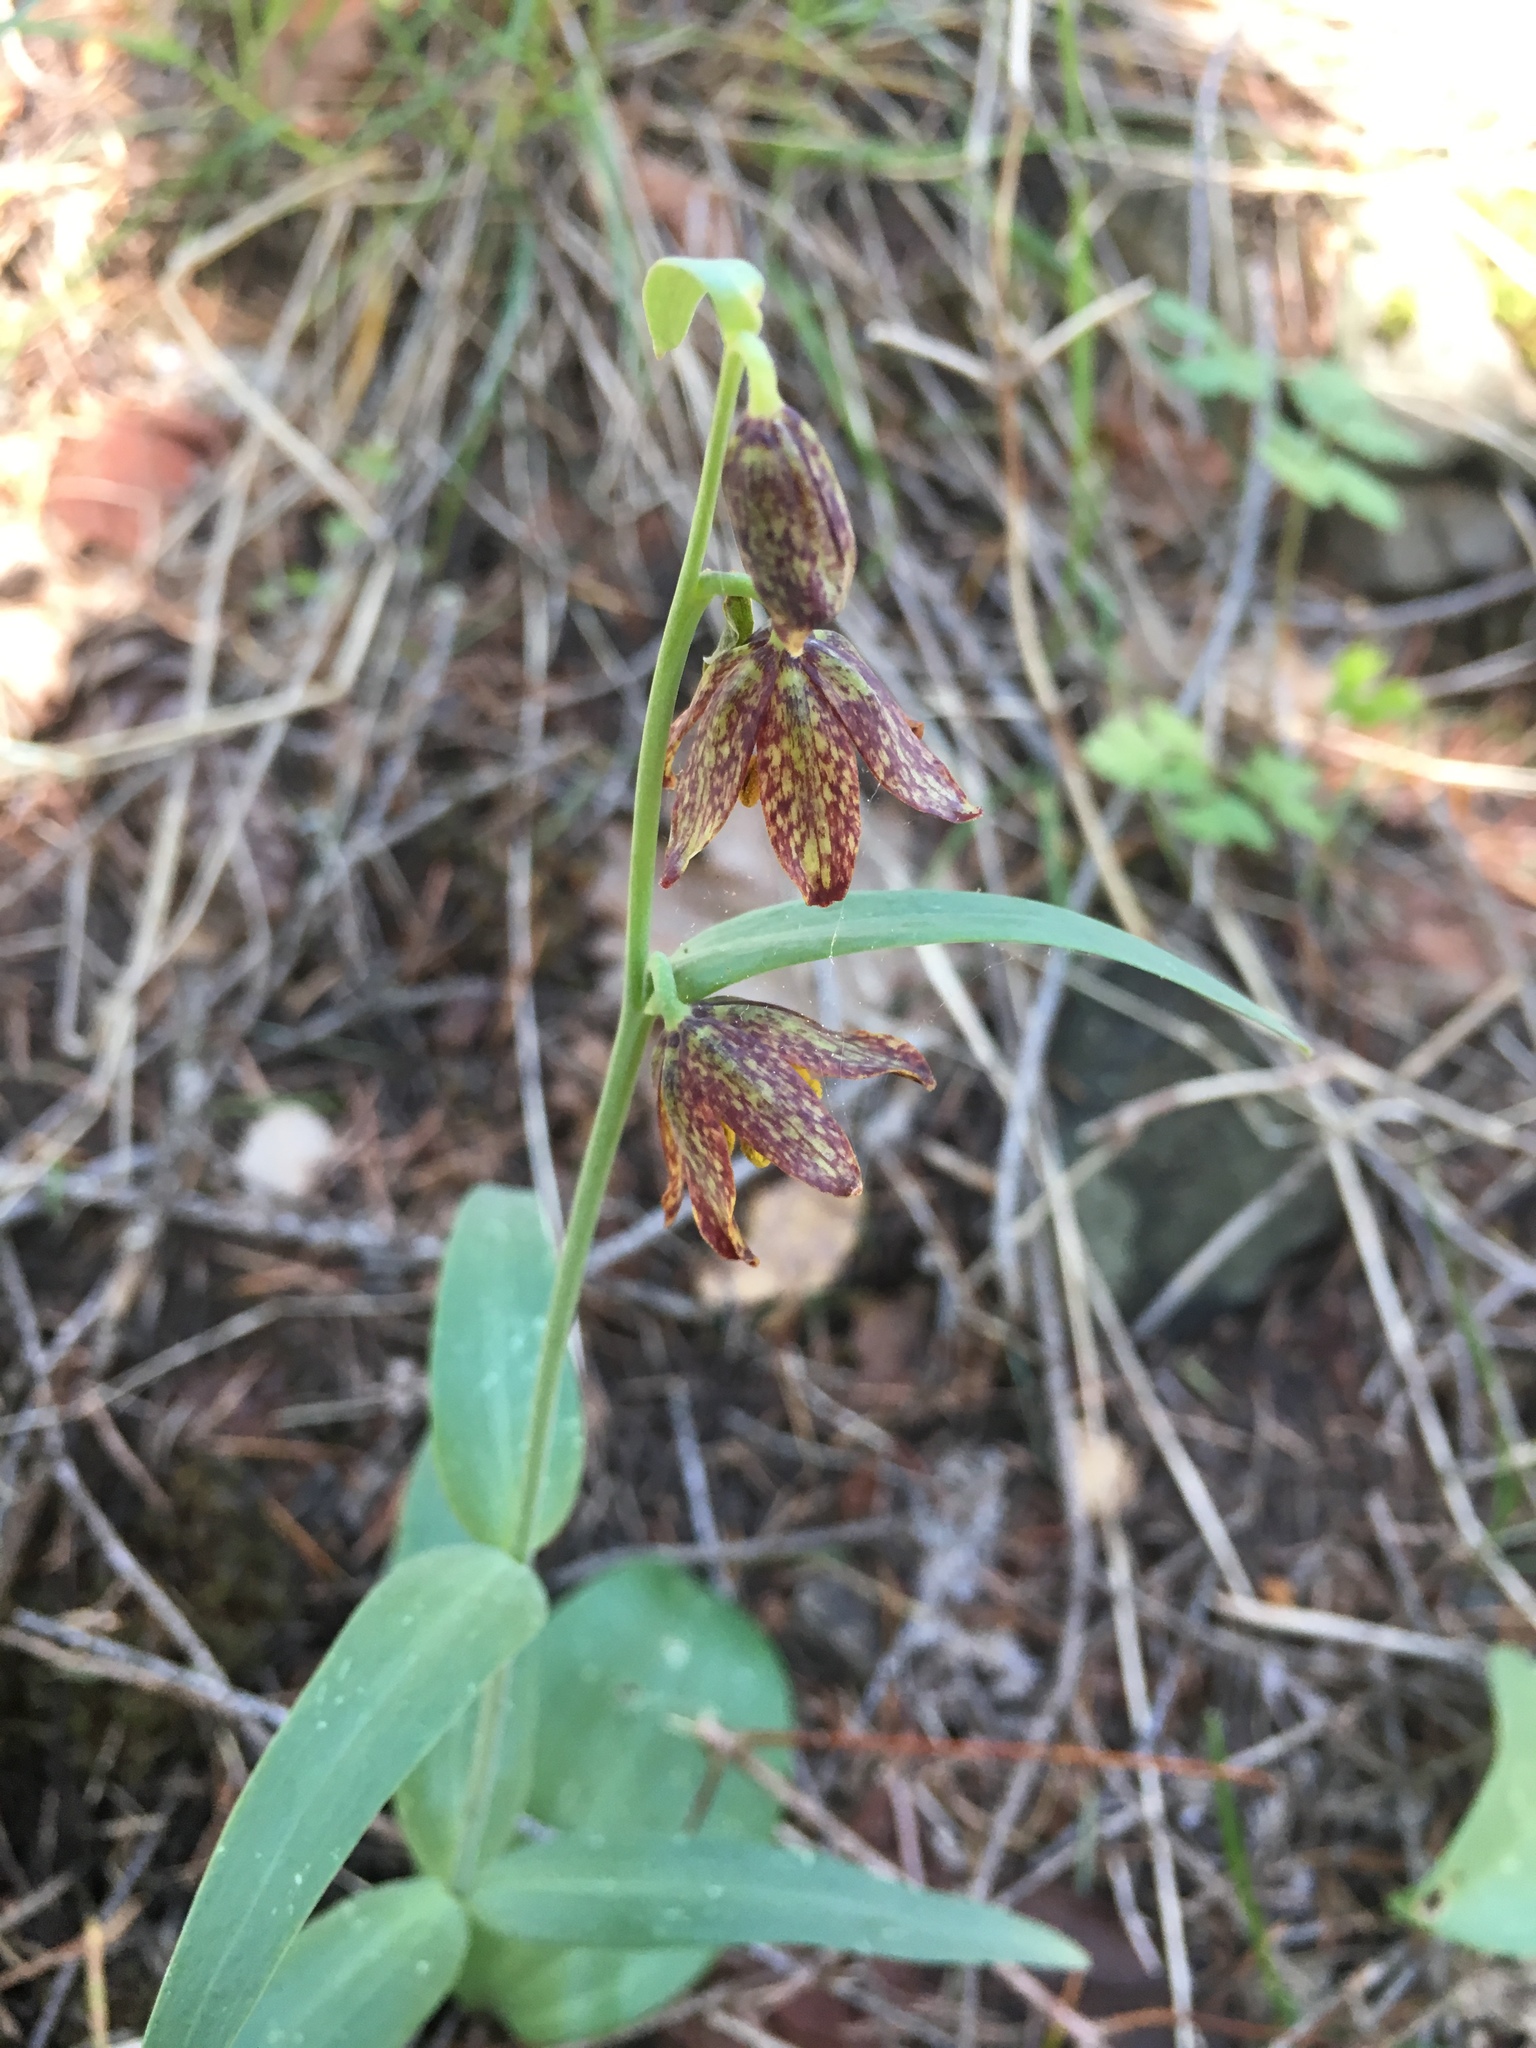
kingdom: Plantae
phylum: Tracheophyta
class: Liliopsida
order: Liliales
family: Liliaceae
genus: Fritillaria
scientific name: Fritillaria affinis
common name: Ojai fritillary
